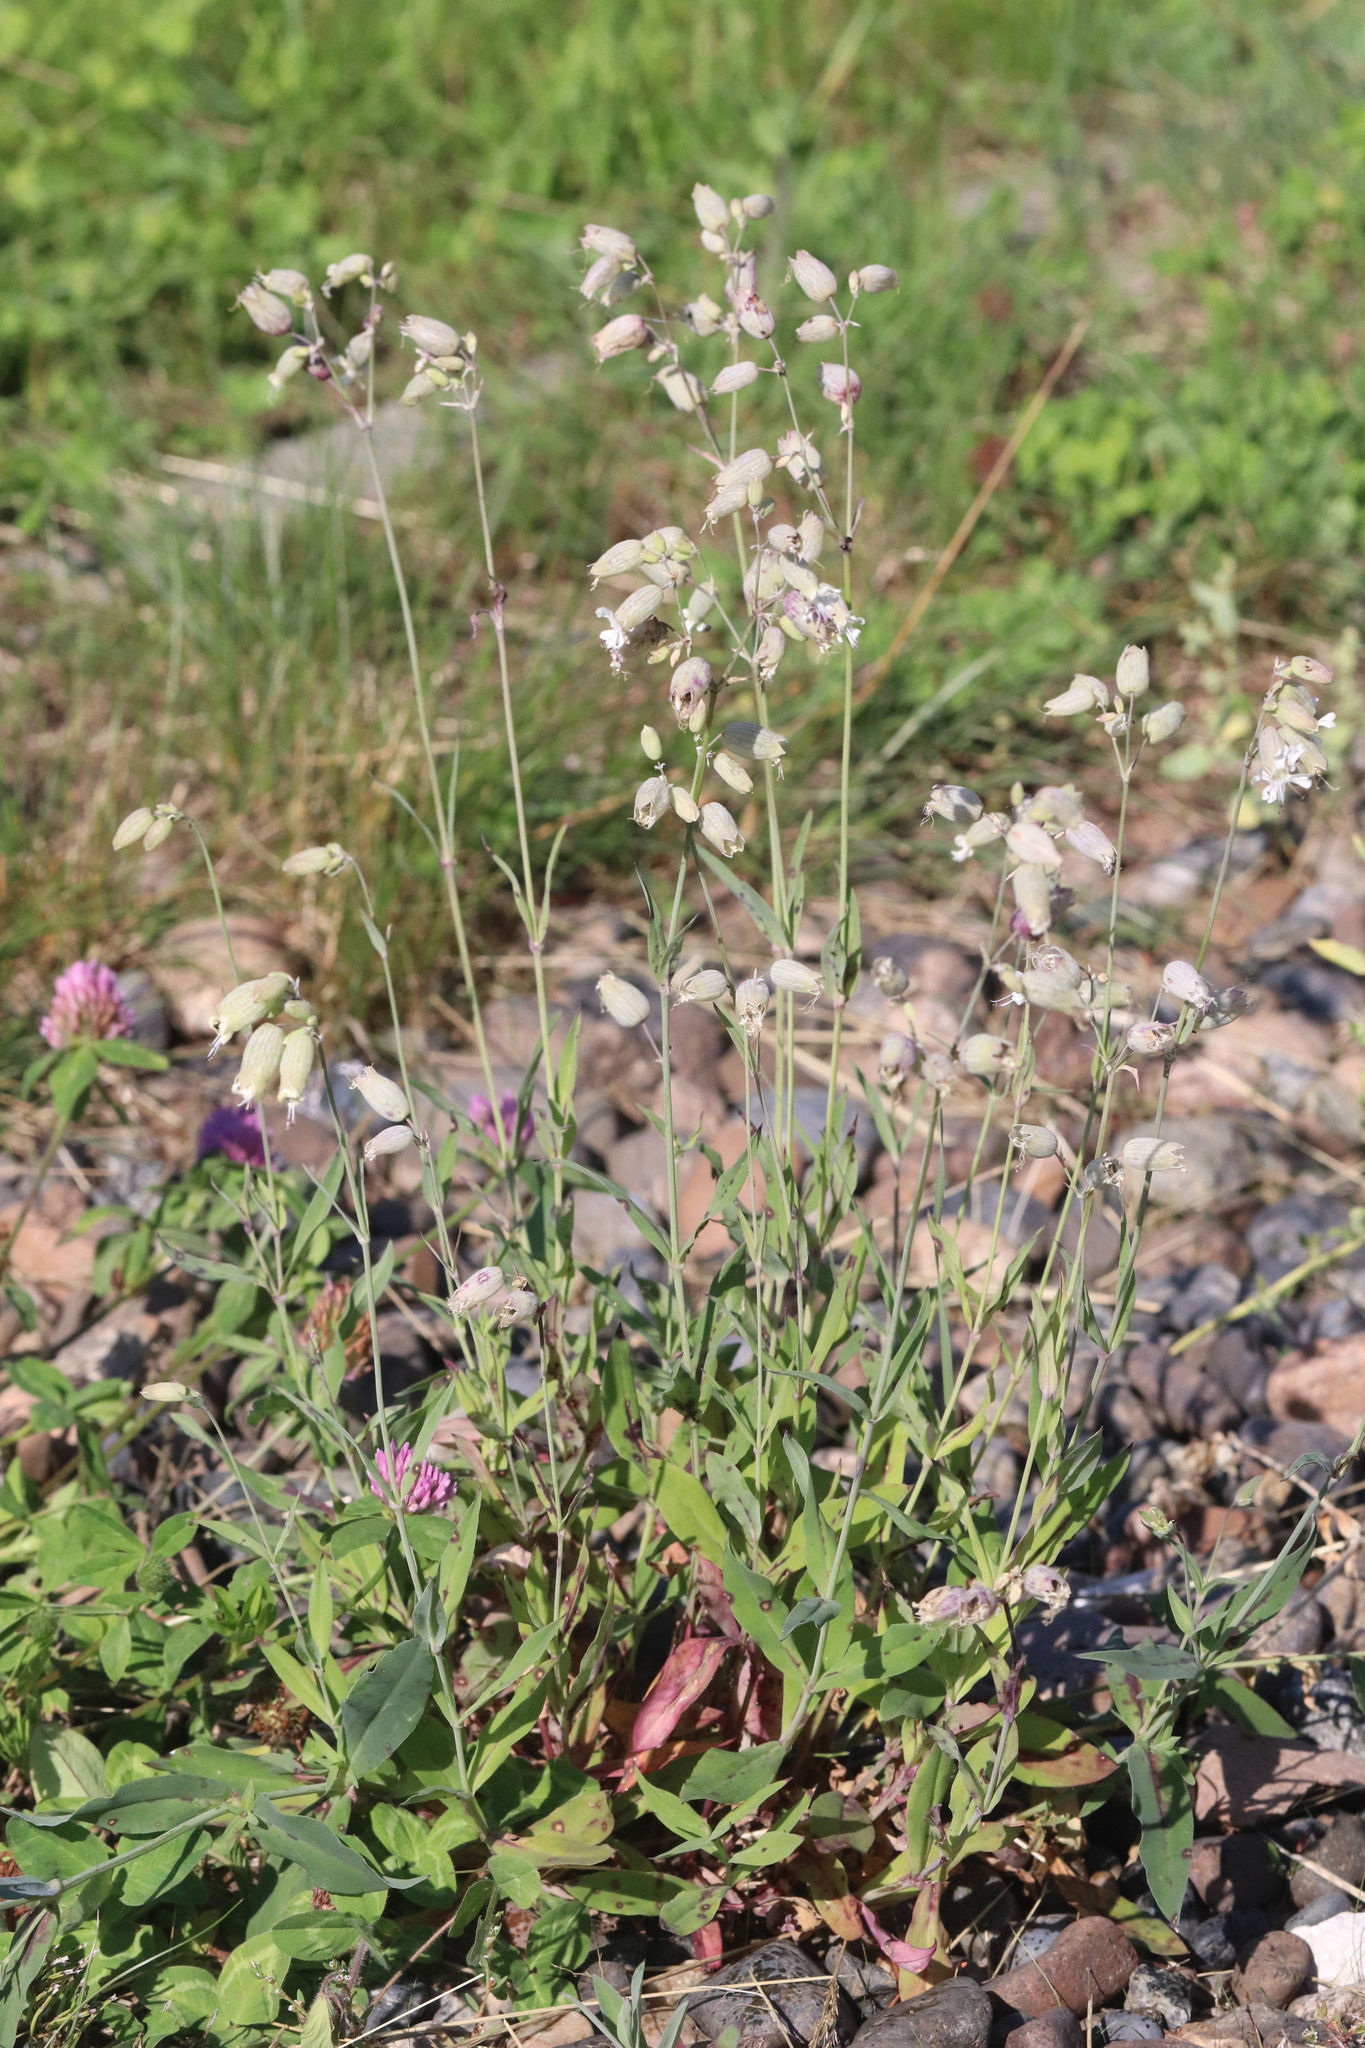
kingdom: Plantae
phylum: Tracheophyta
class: Magnoliopsida
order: Caryophyllales
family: Caryophyllaceae
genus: Silene
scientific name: Silene vulgaris
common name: Bladder campion
